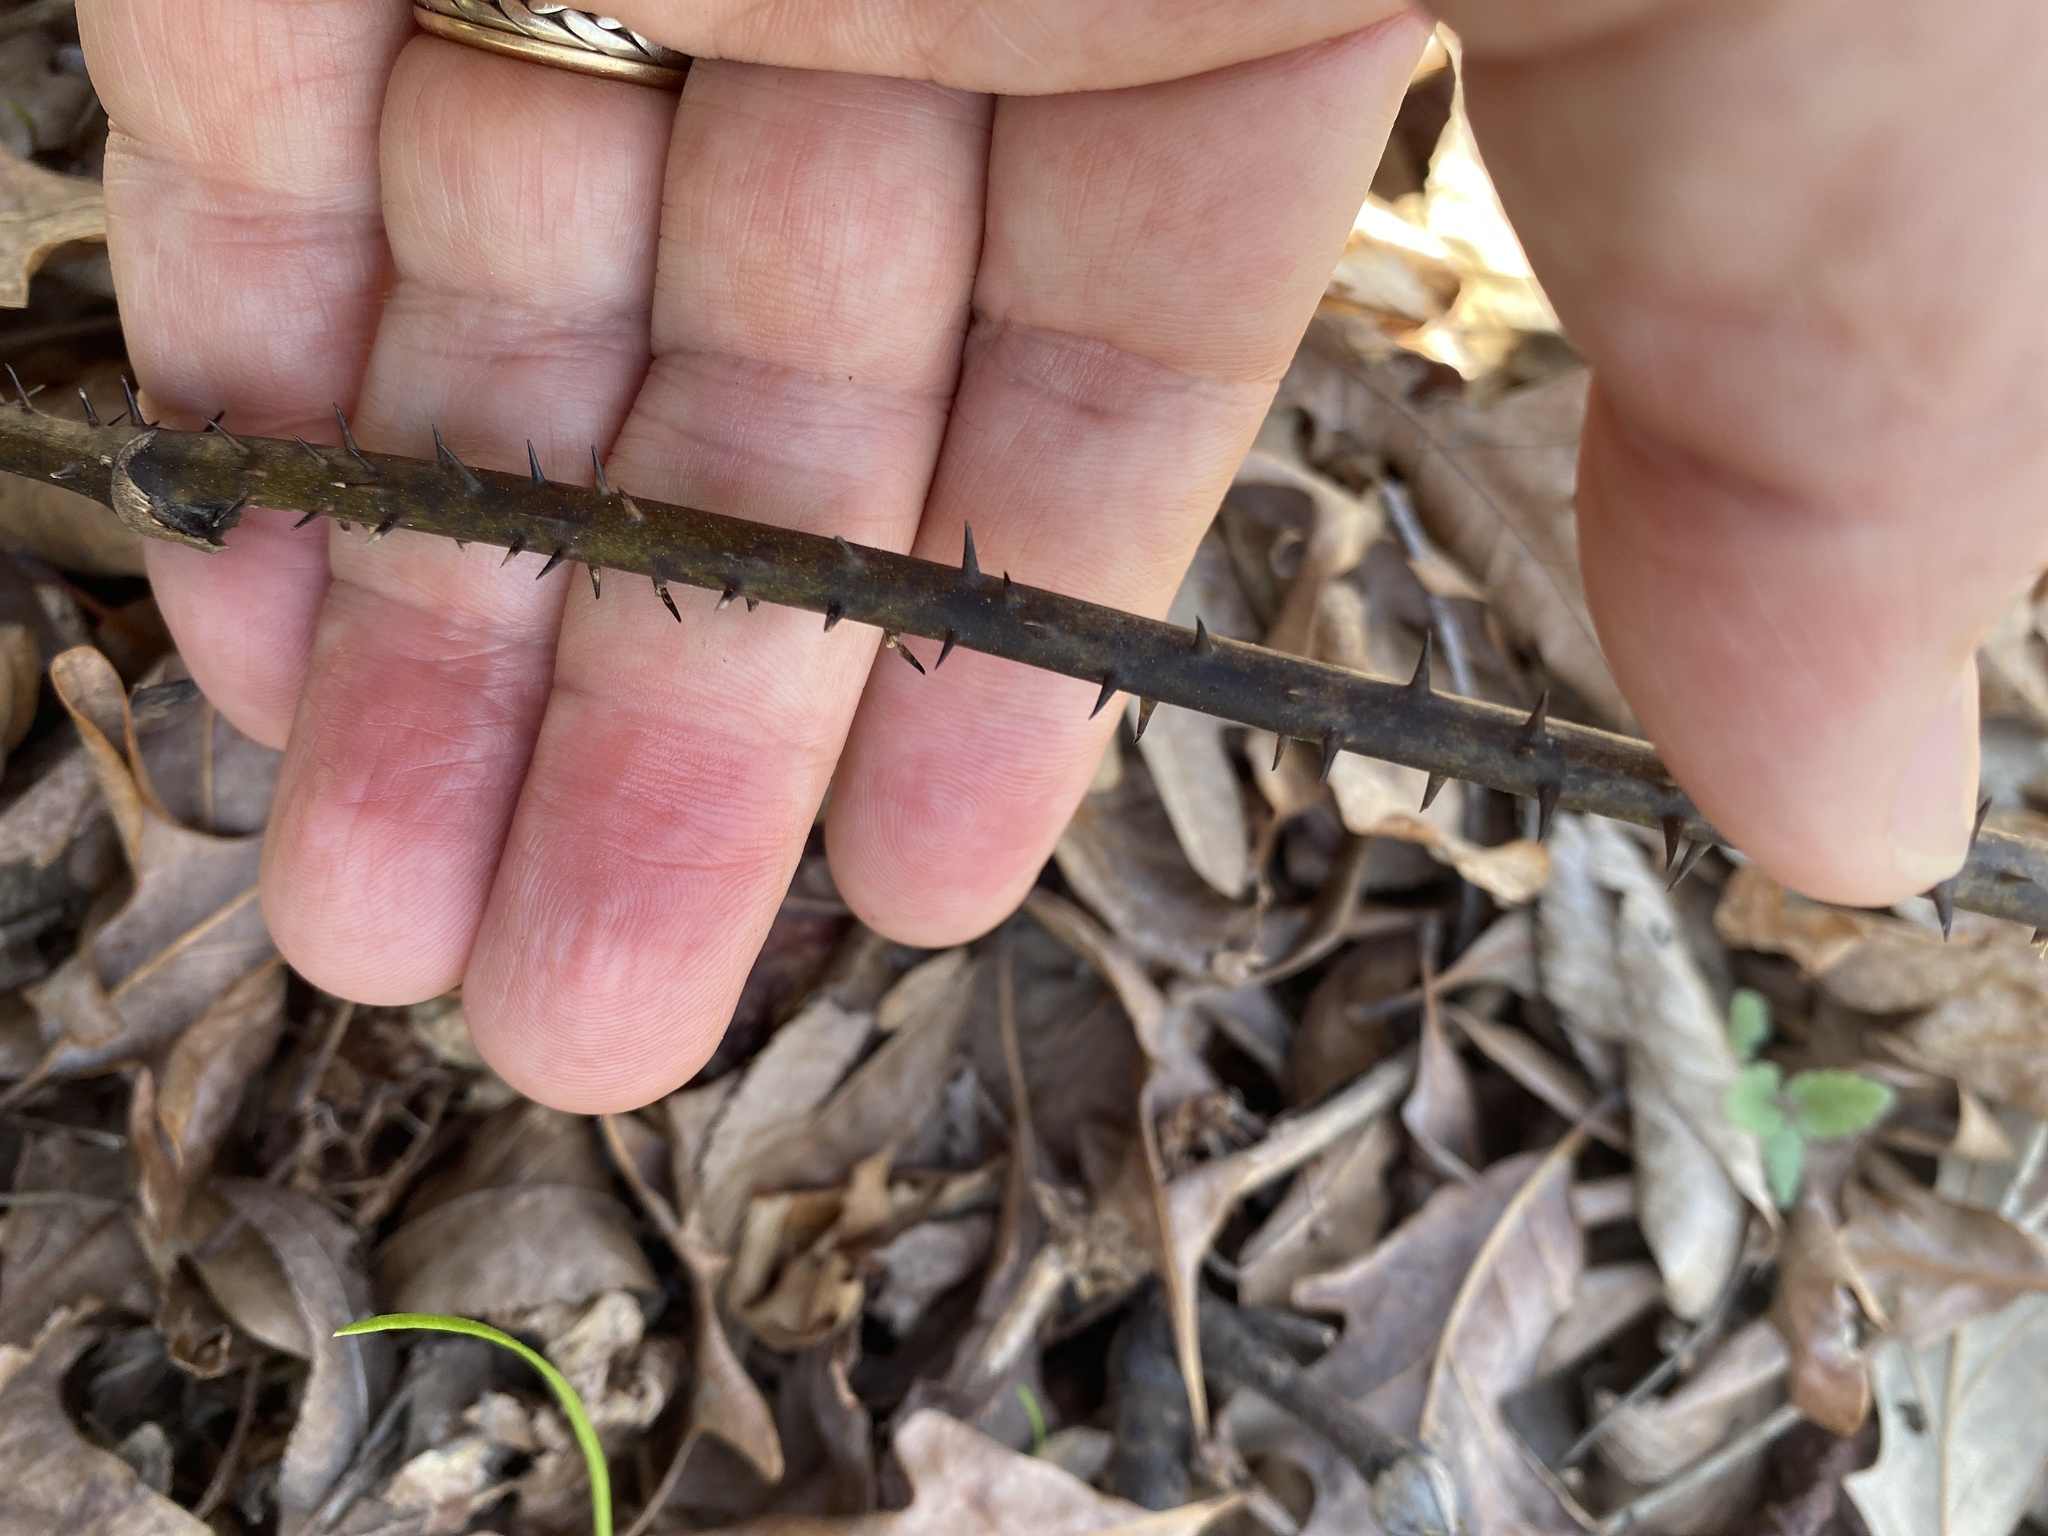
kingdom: Plantae
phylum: Tracheophyta
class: Liliopsida
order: Liliales
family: Smilacaceae
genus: Smilax
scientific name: Smilax tamnoides
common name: Hellfetter
